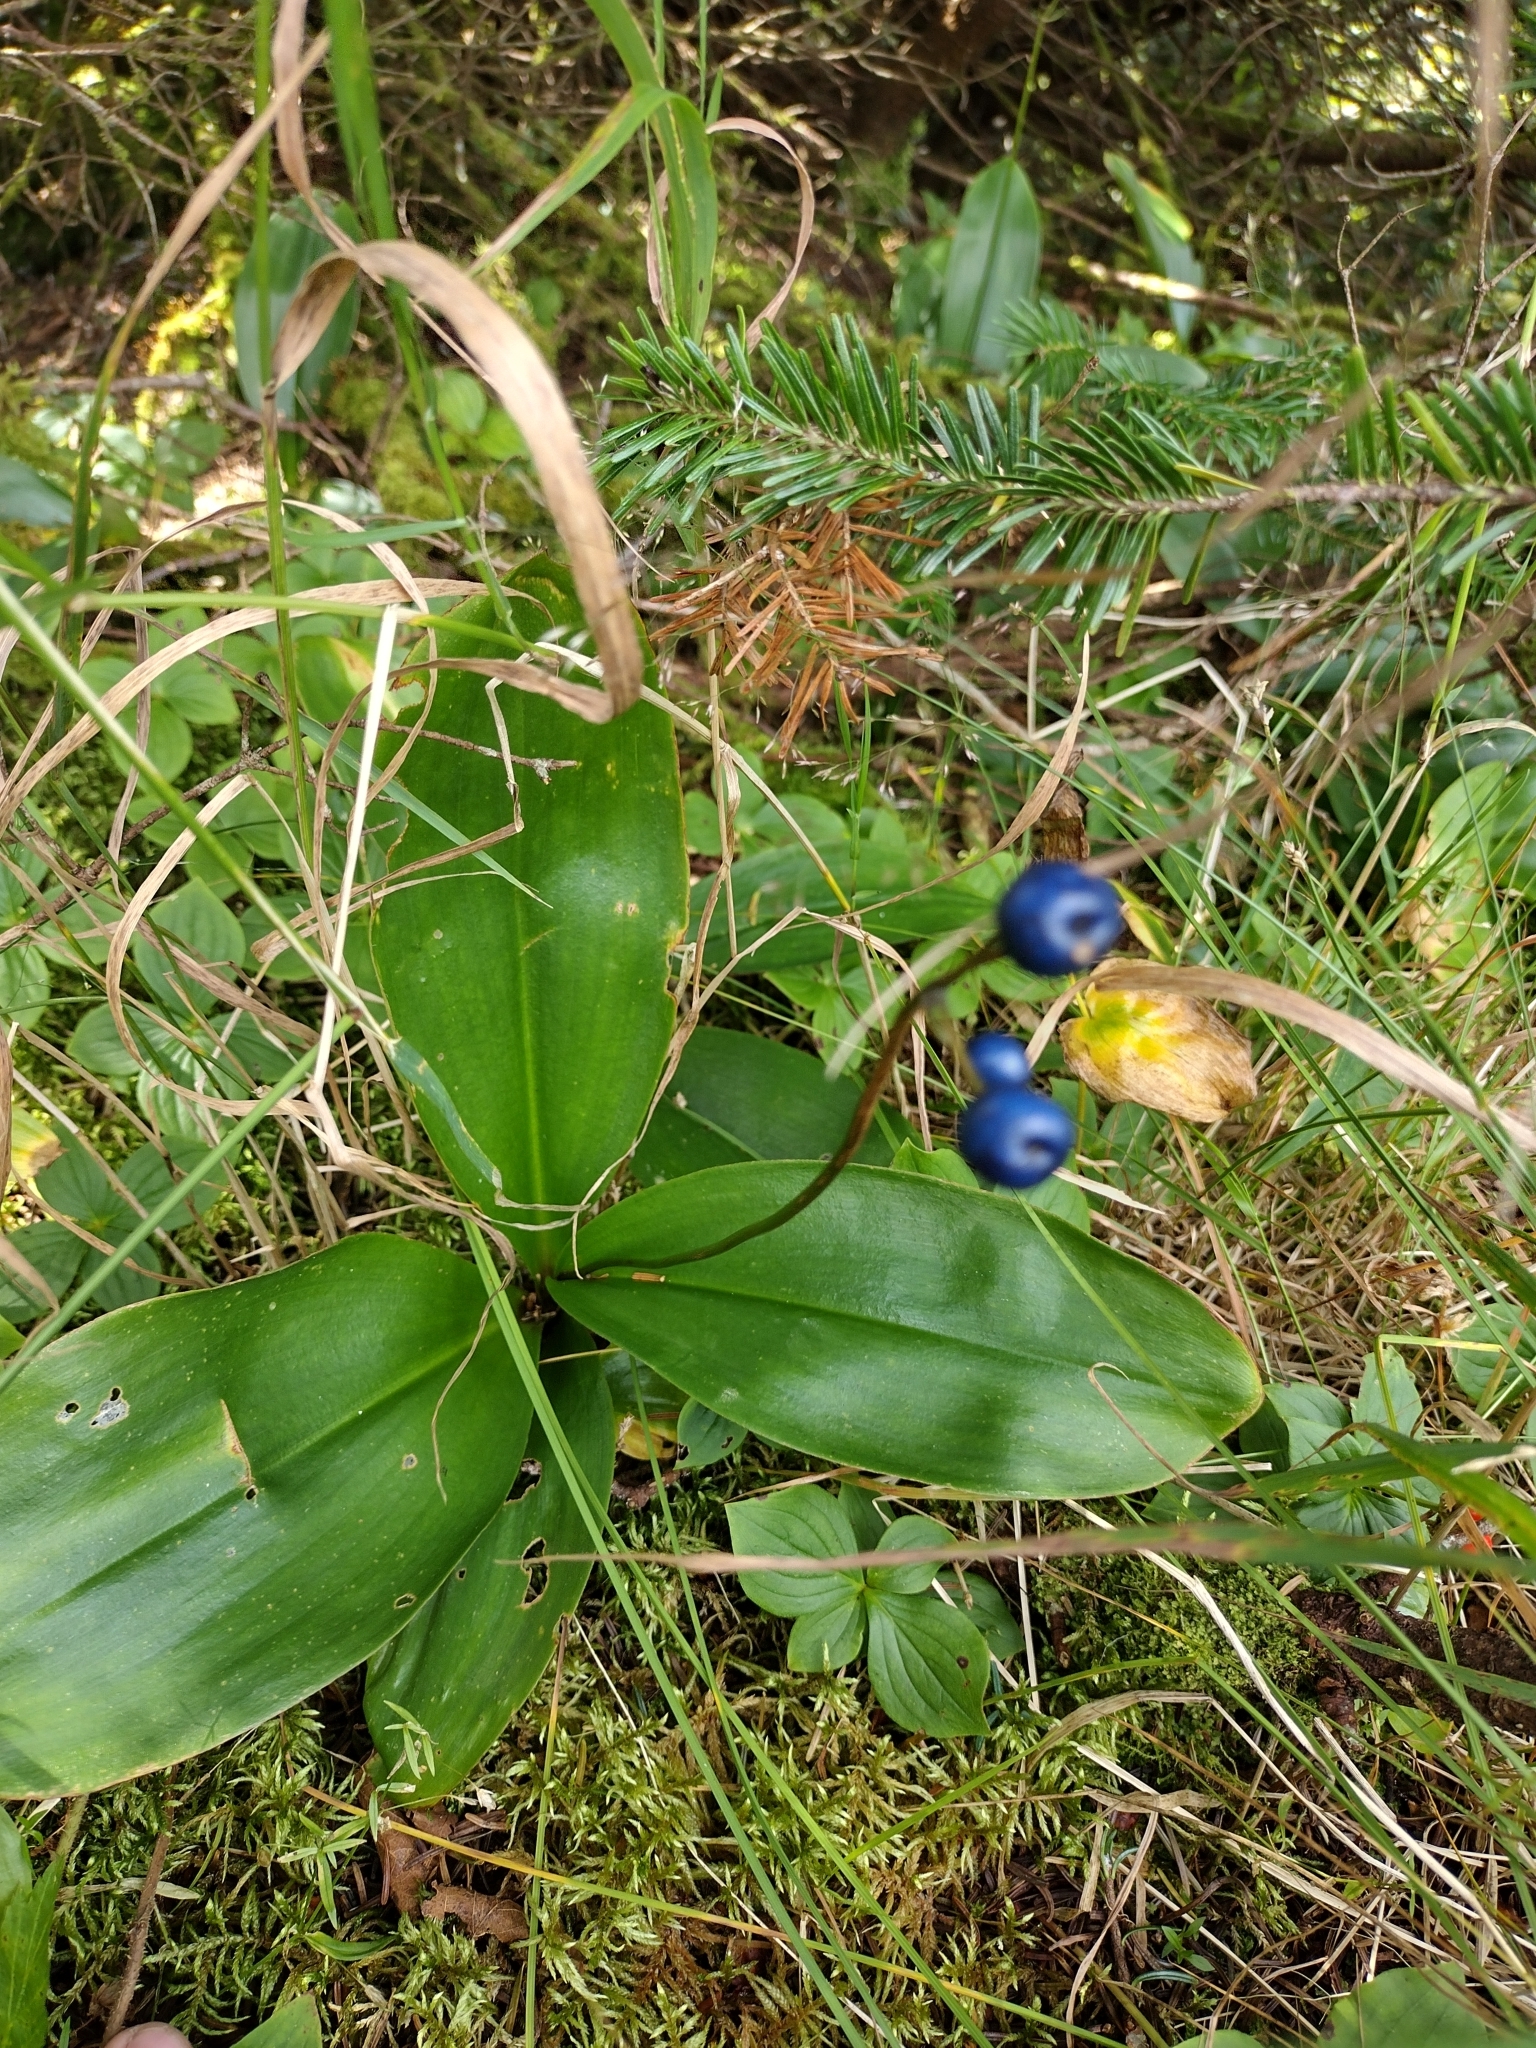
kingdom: Plantae
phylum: Tracheophyta
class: Liliopsida
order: Liliales
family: Liliaceae
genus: Clintonia
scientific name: Clintonia borealis
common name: Yellow clintonia
